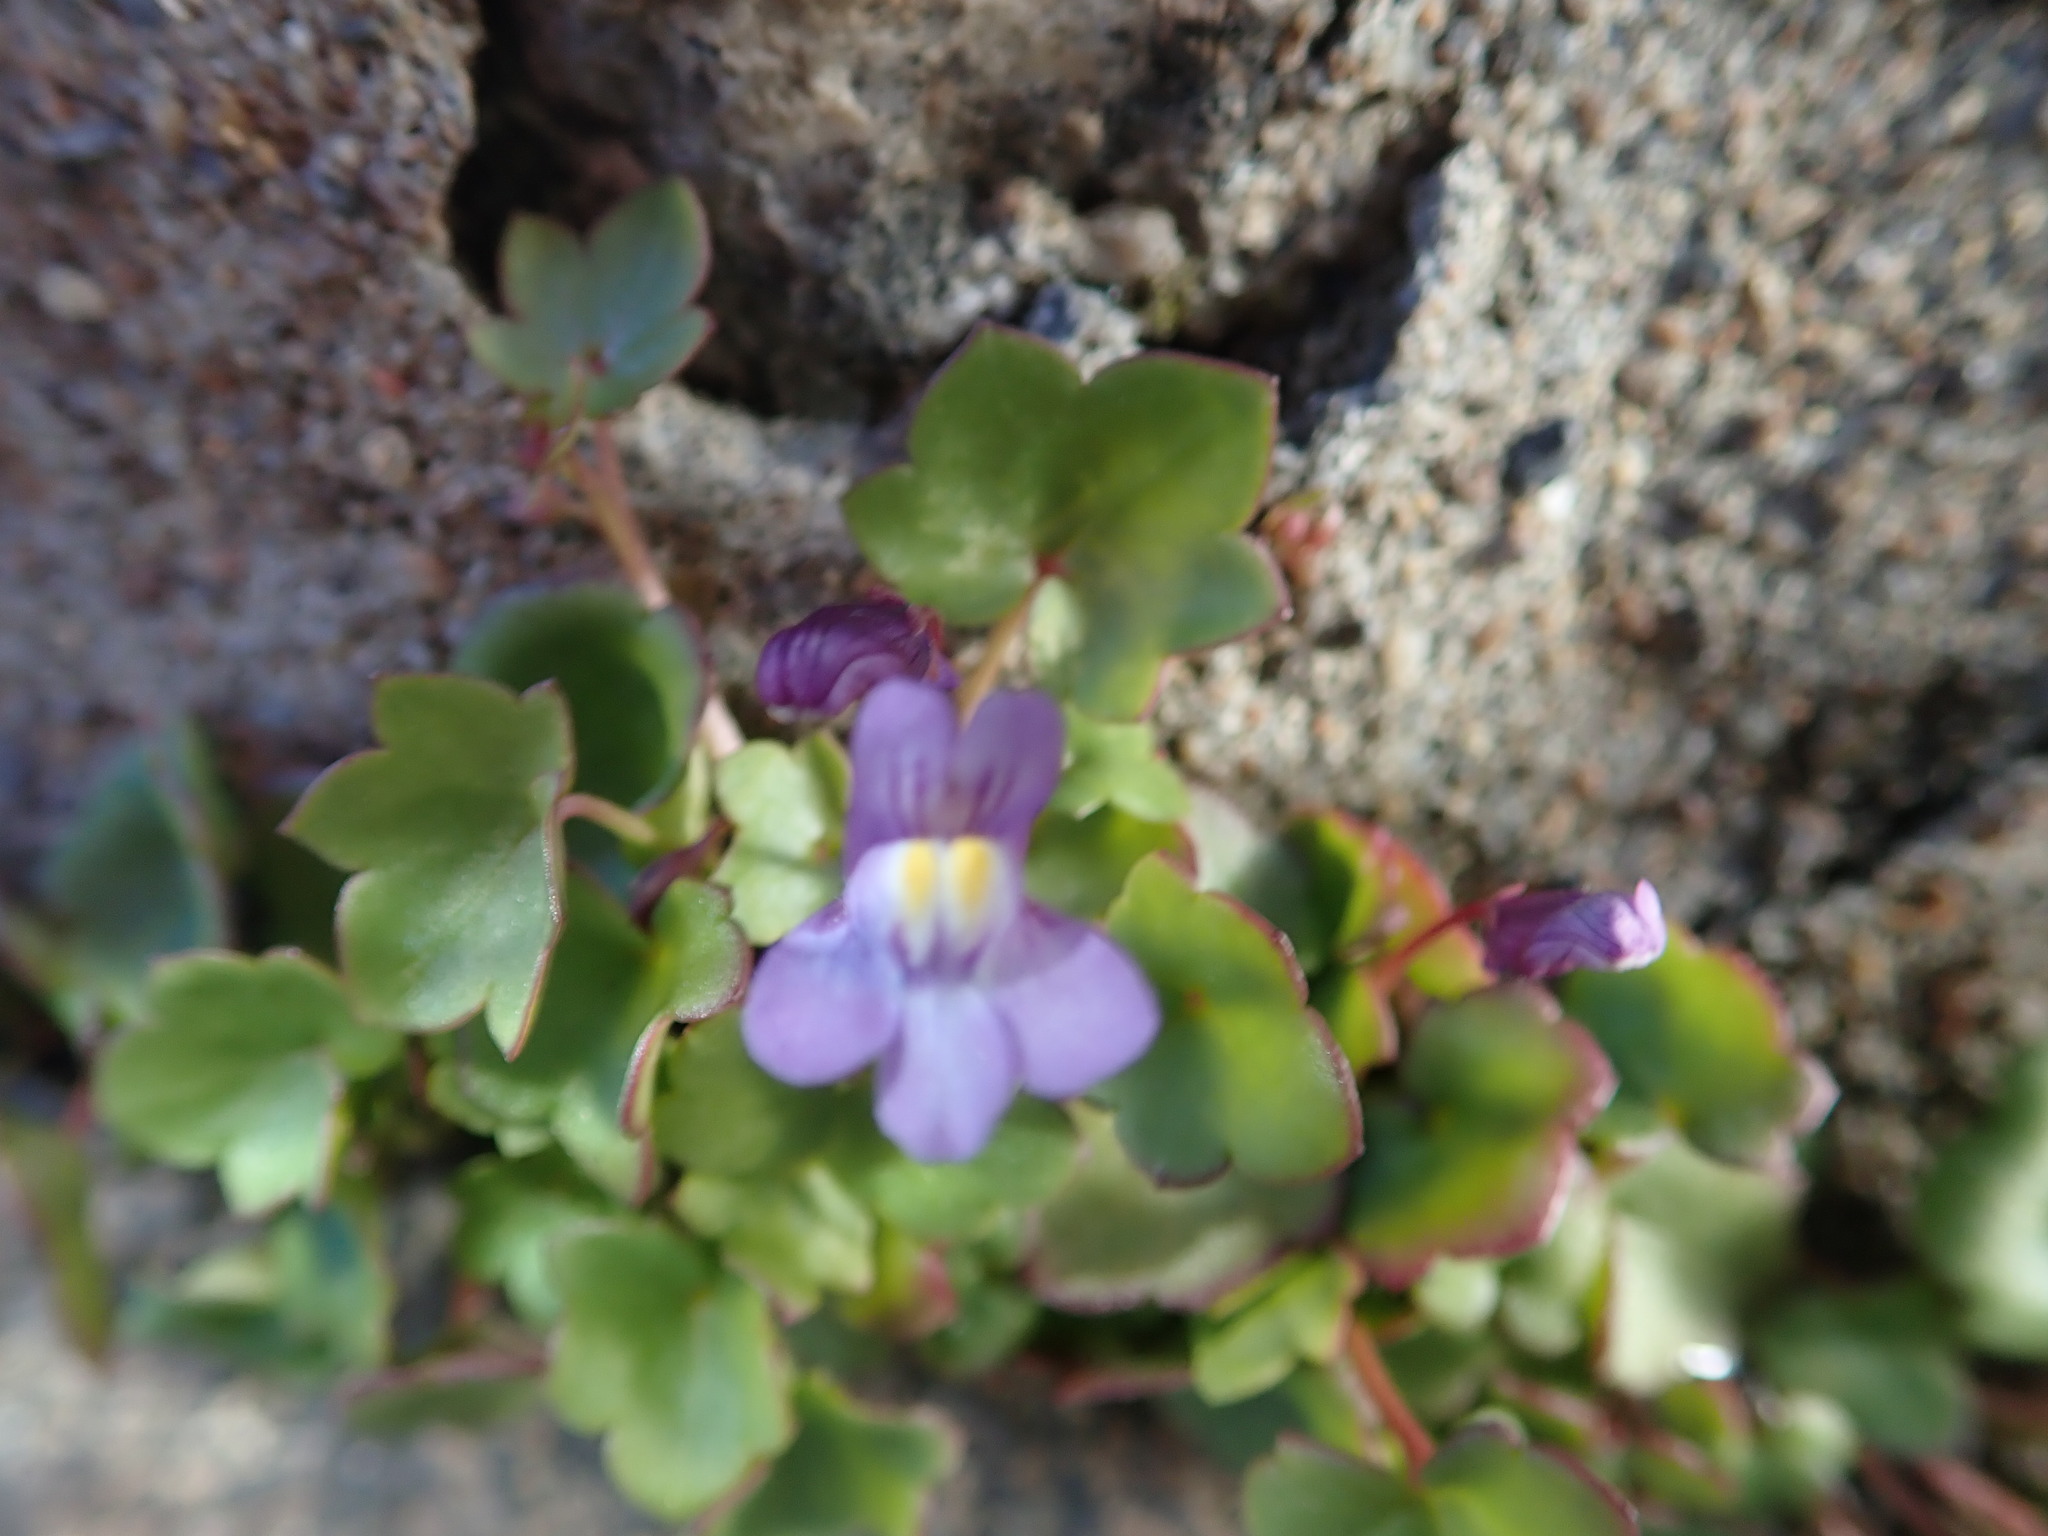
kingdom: Plantae
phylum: Tracheophyta
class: Magnoliopsida
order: Lamiales
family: Plantaginaceae
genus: Cymbalaria
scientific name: Cymbalaria muralis
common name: Ivy-leaved toadflax
